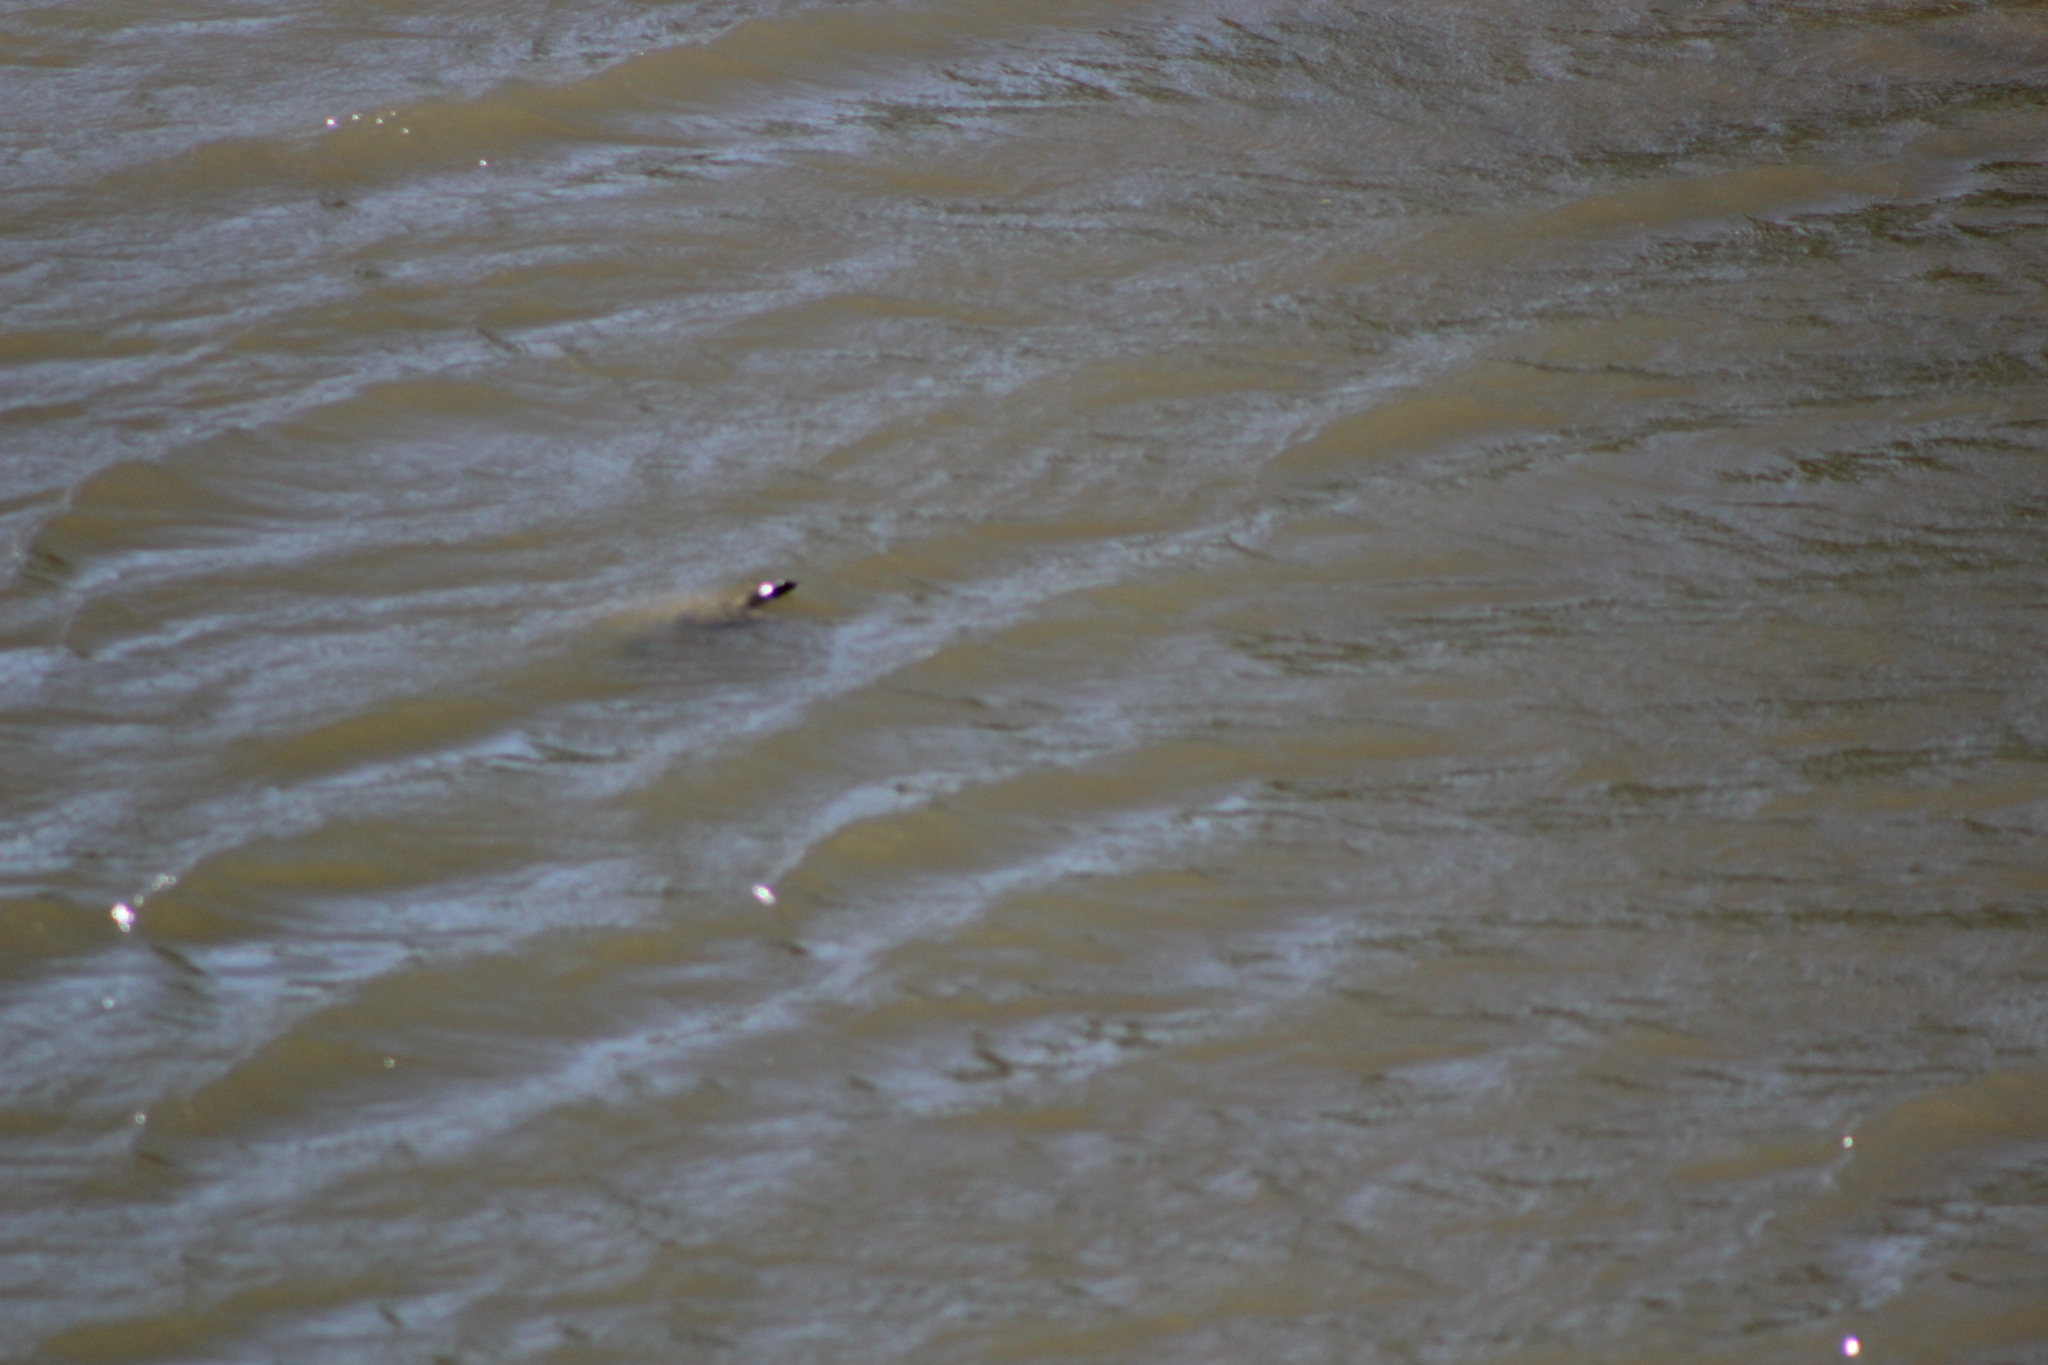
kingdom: Animalia
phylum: Chordata
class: Testudines
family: Emydidae
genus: Chrysemys
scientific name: Chrysemys picta
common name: Painted turtle
